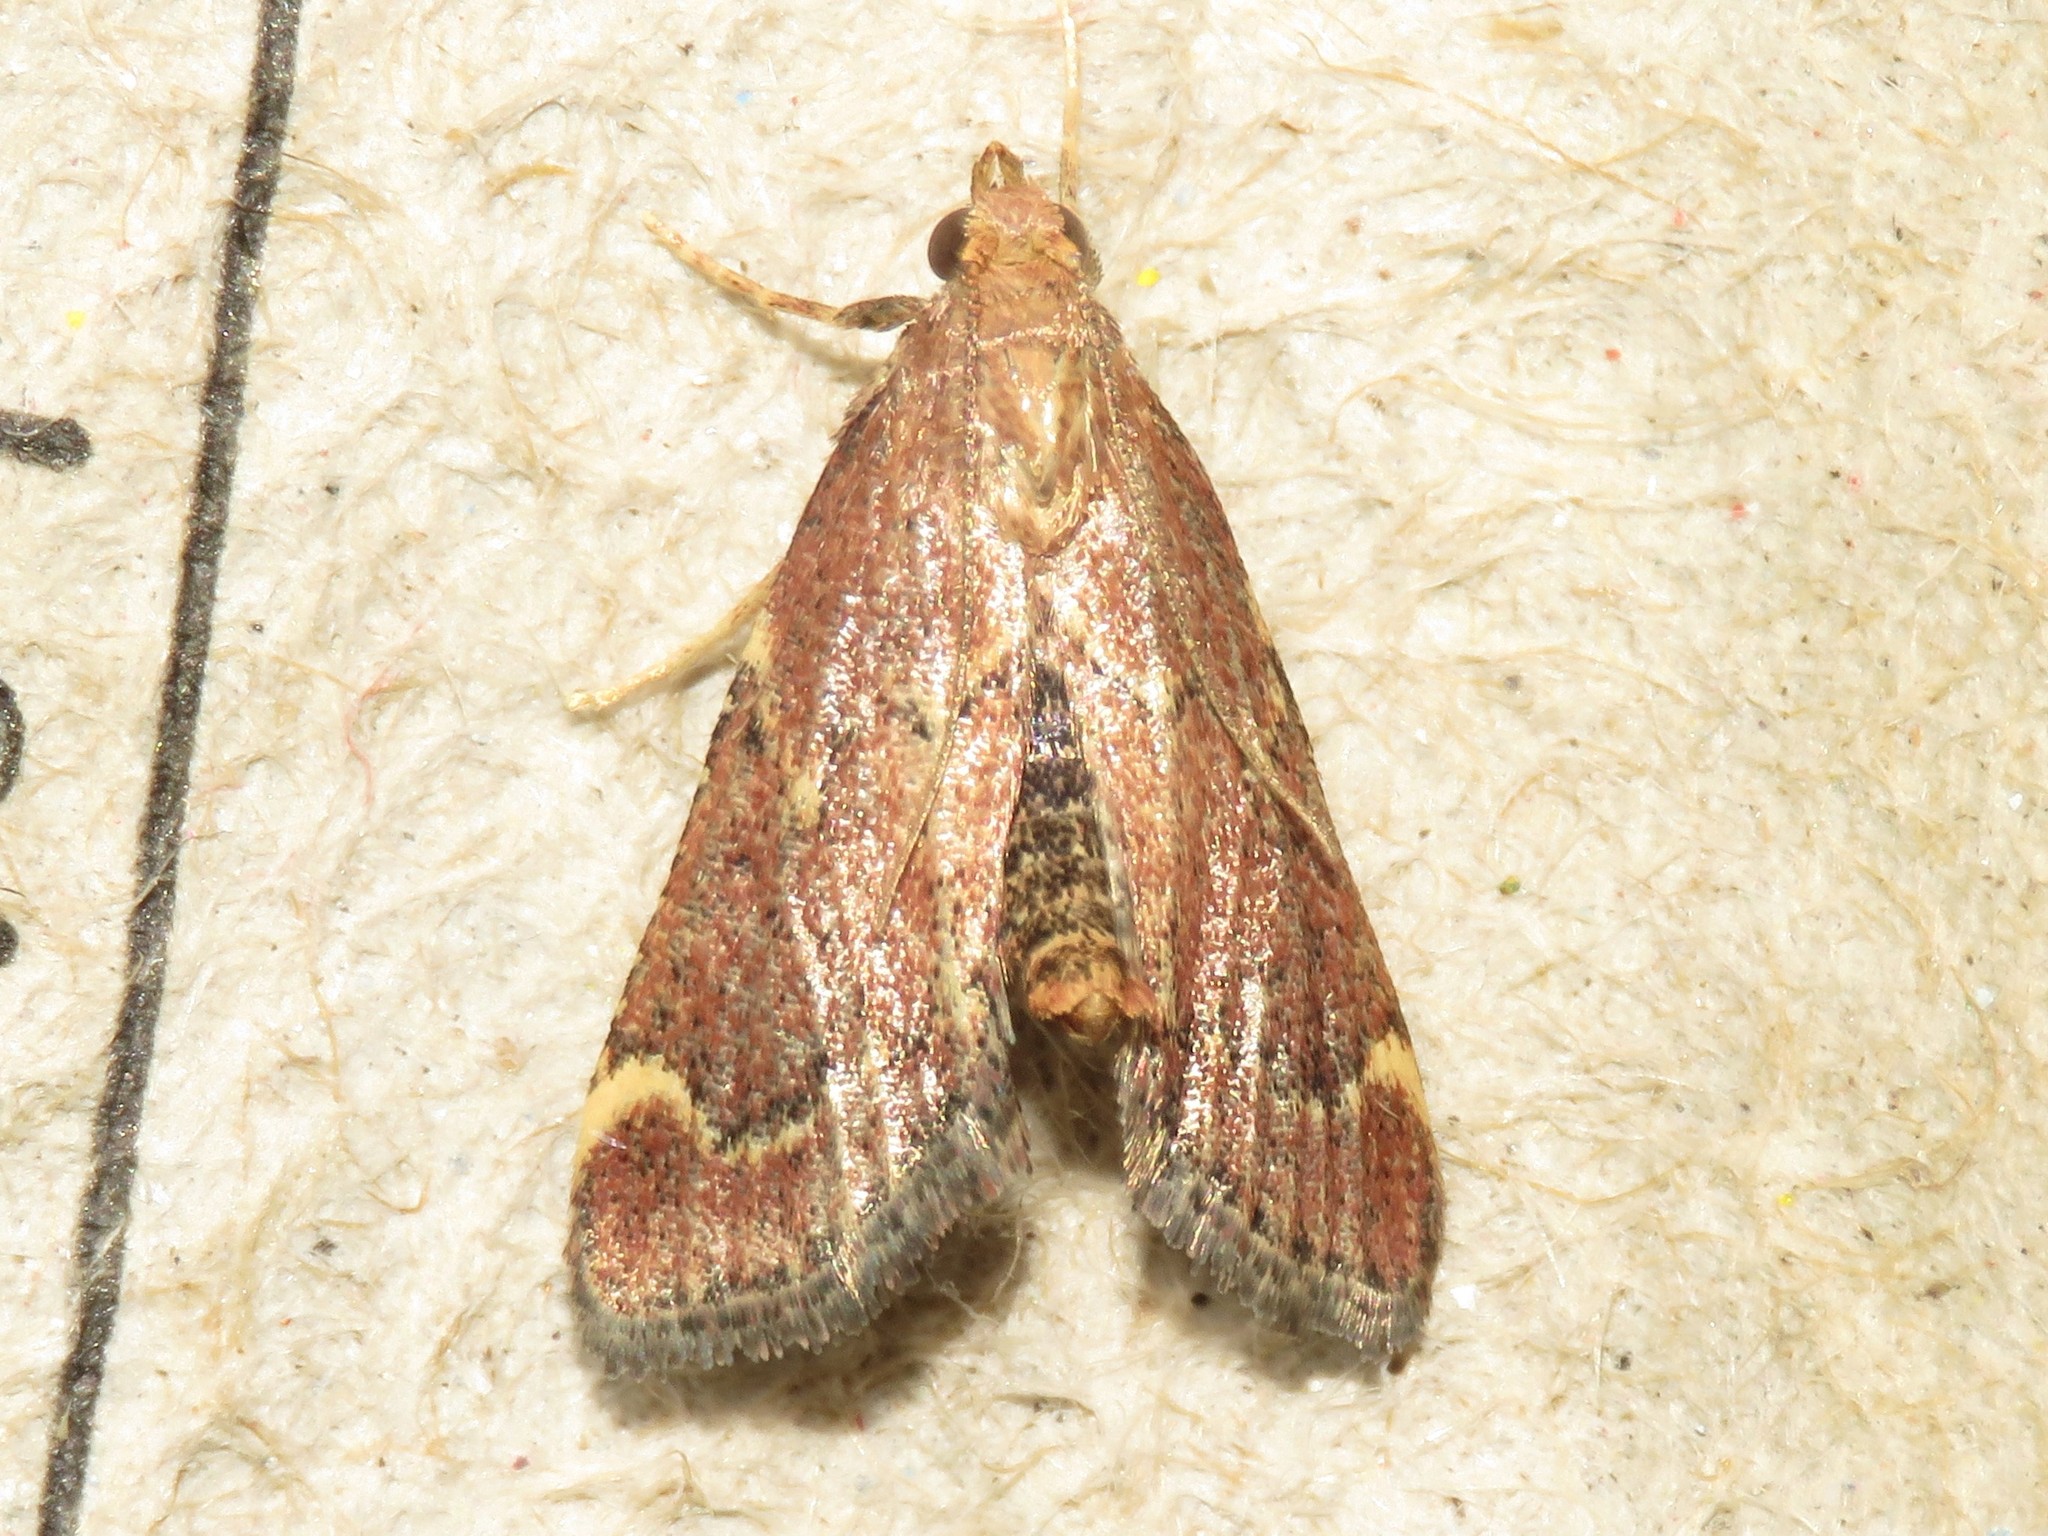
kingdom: Animalia
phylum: Arthropoda
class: Insecta
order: Lepidoptera
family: Pyralidae
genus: Hypsopygia
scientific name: Hypsopygia intermedialis
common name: Red-shawled moth
